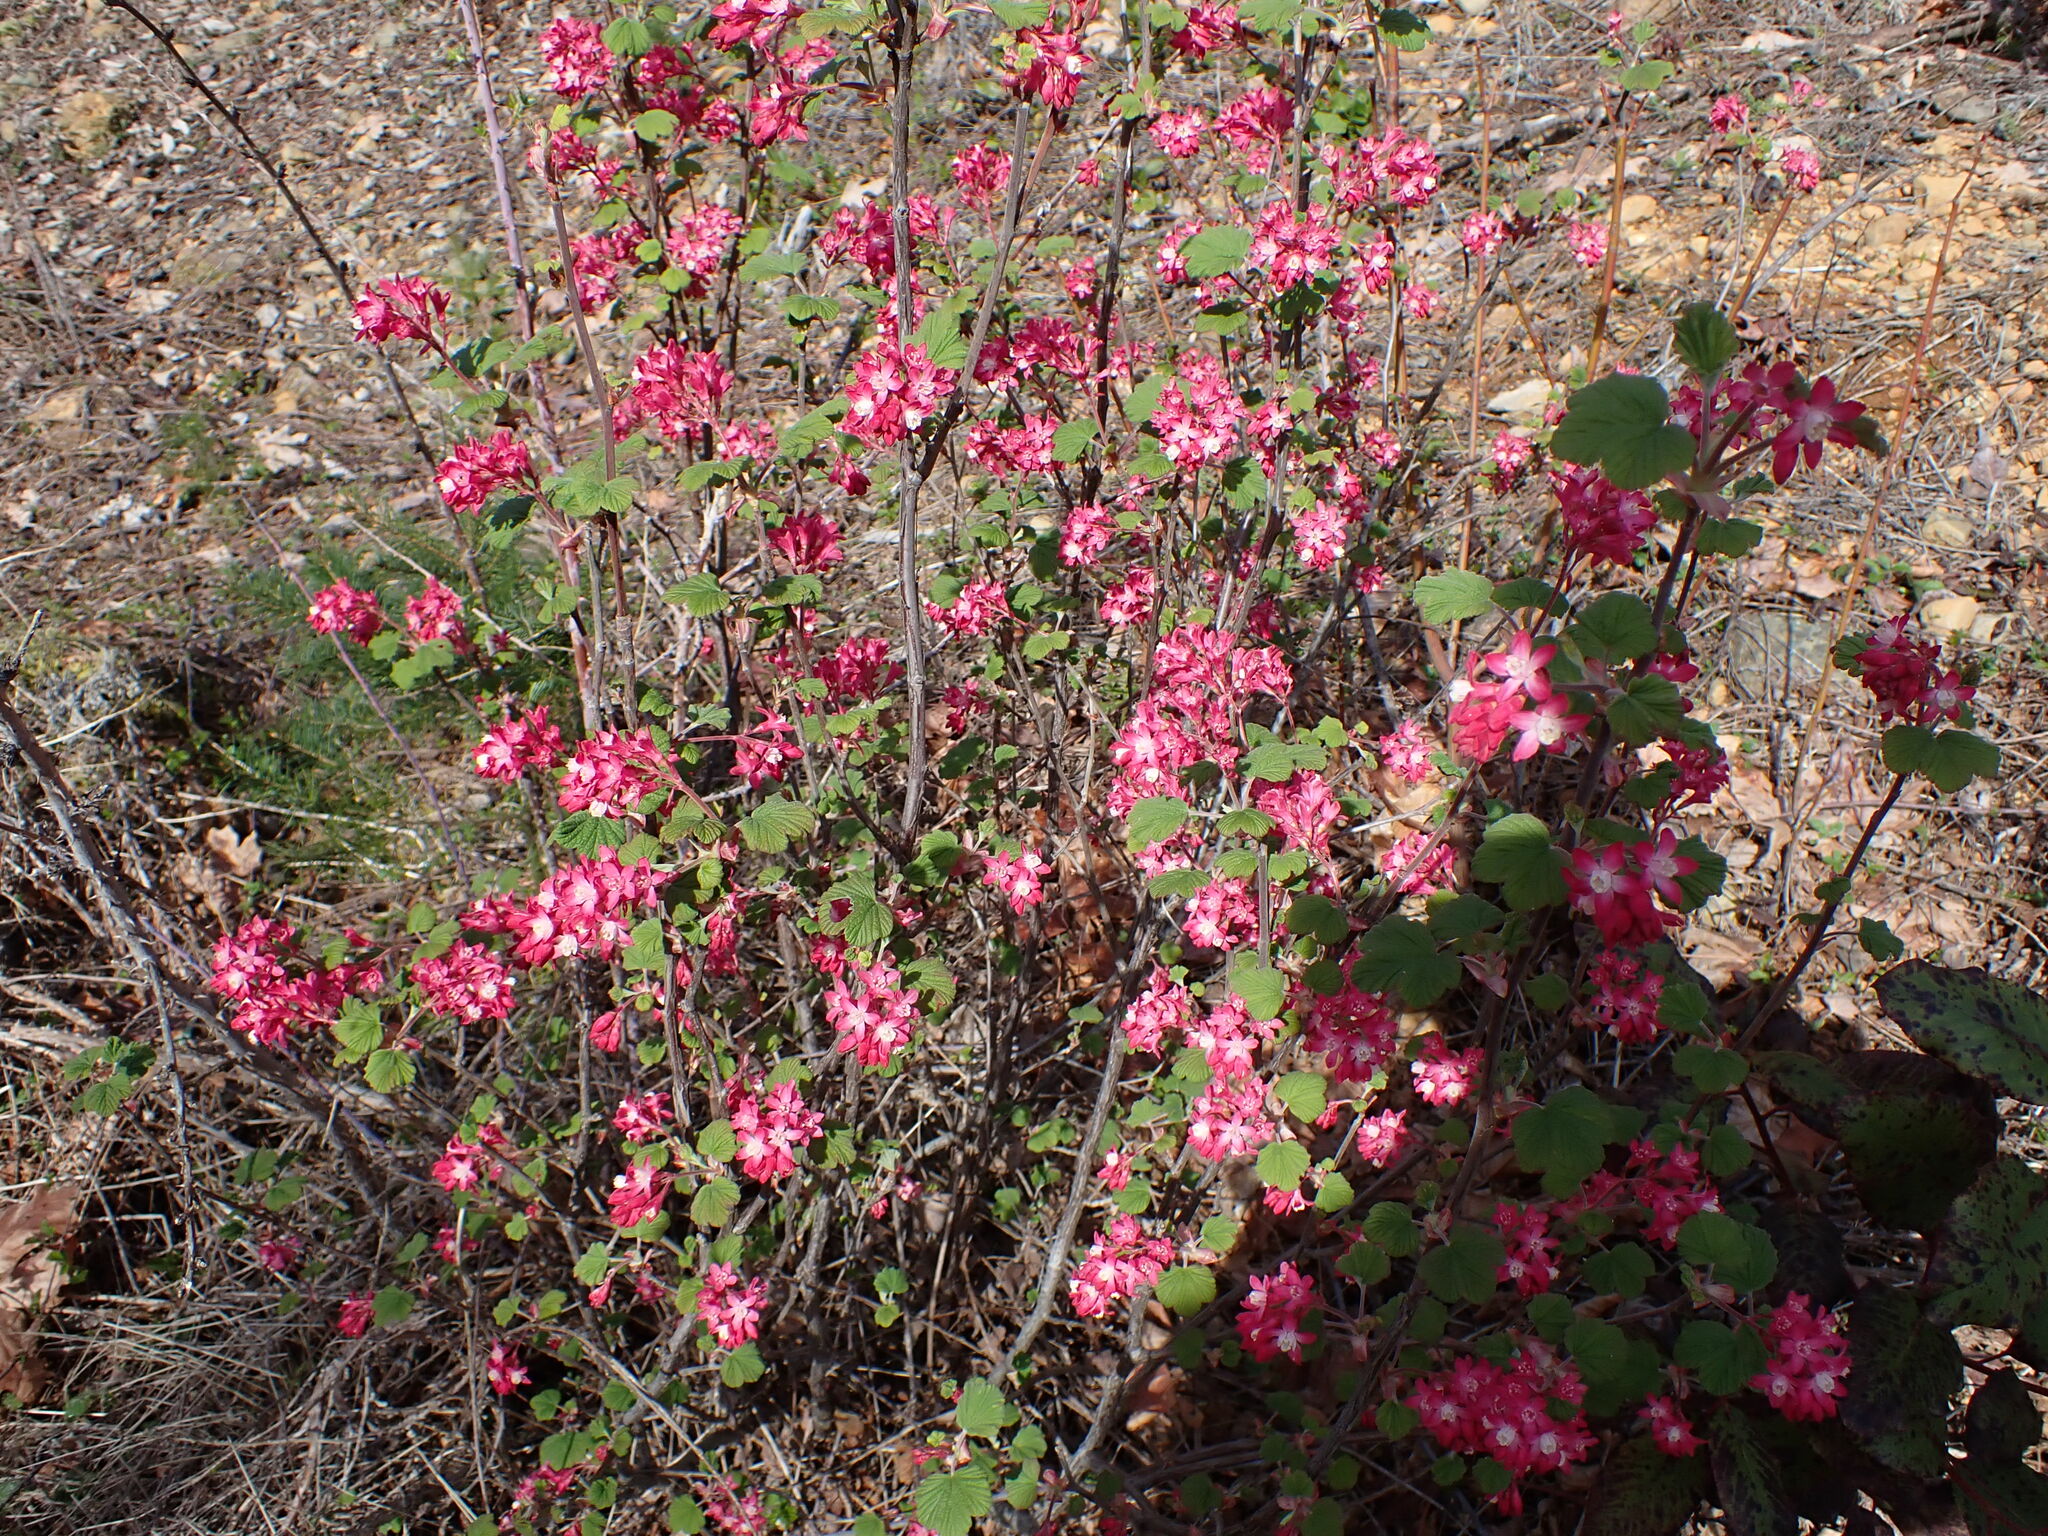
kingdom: Plantae
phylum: Tracheophyta
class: Magnoliopsida
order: Saxifragales
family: Grossulariaceae
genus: Ribes
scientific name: Ribes sanguineum
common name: Flowering currant
